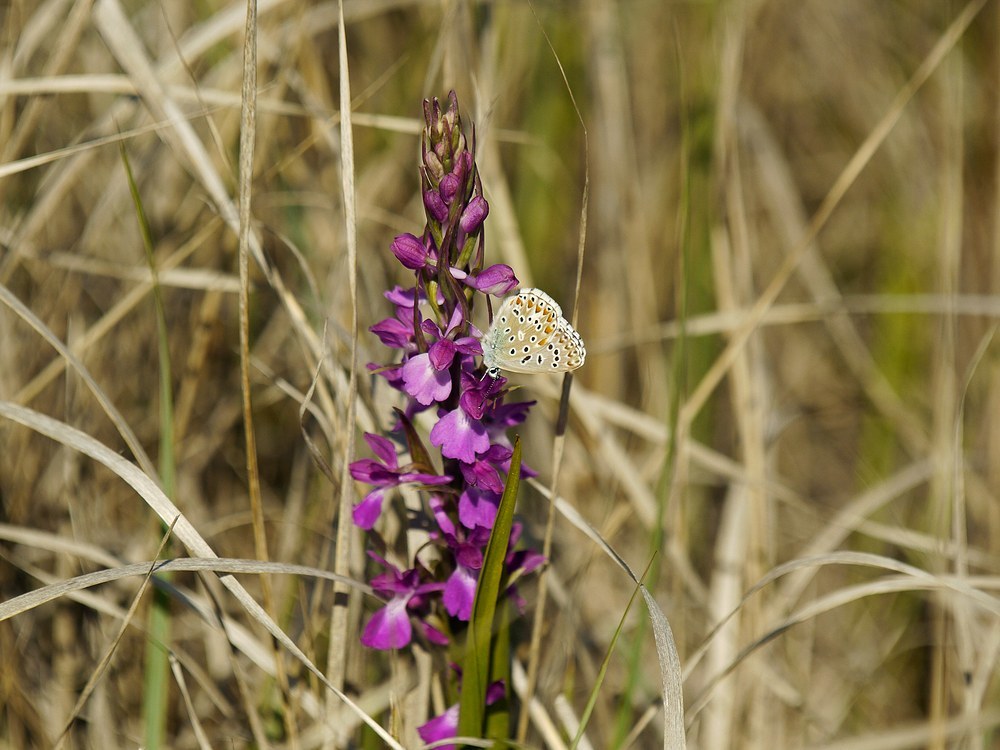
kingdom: Animalia
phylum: Arthropoda
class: Insecta
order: Lepidoptera
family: Lycaenidae
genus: Lysandra
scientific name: Lysandra bellargus
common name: Adonis blue
